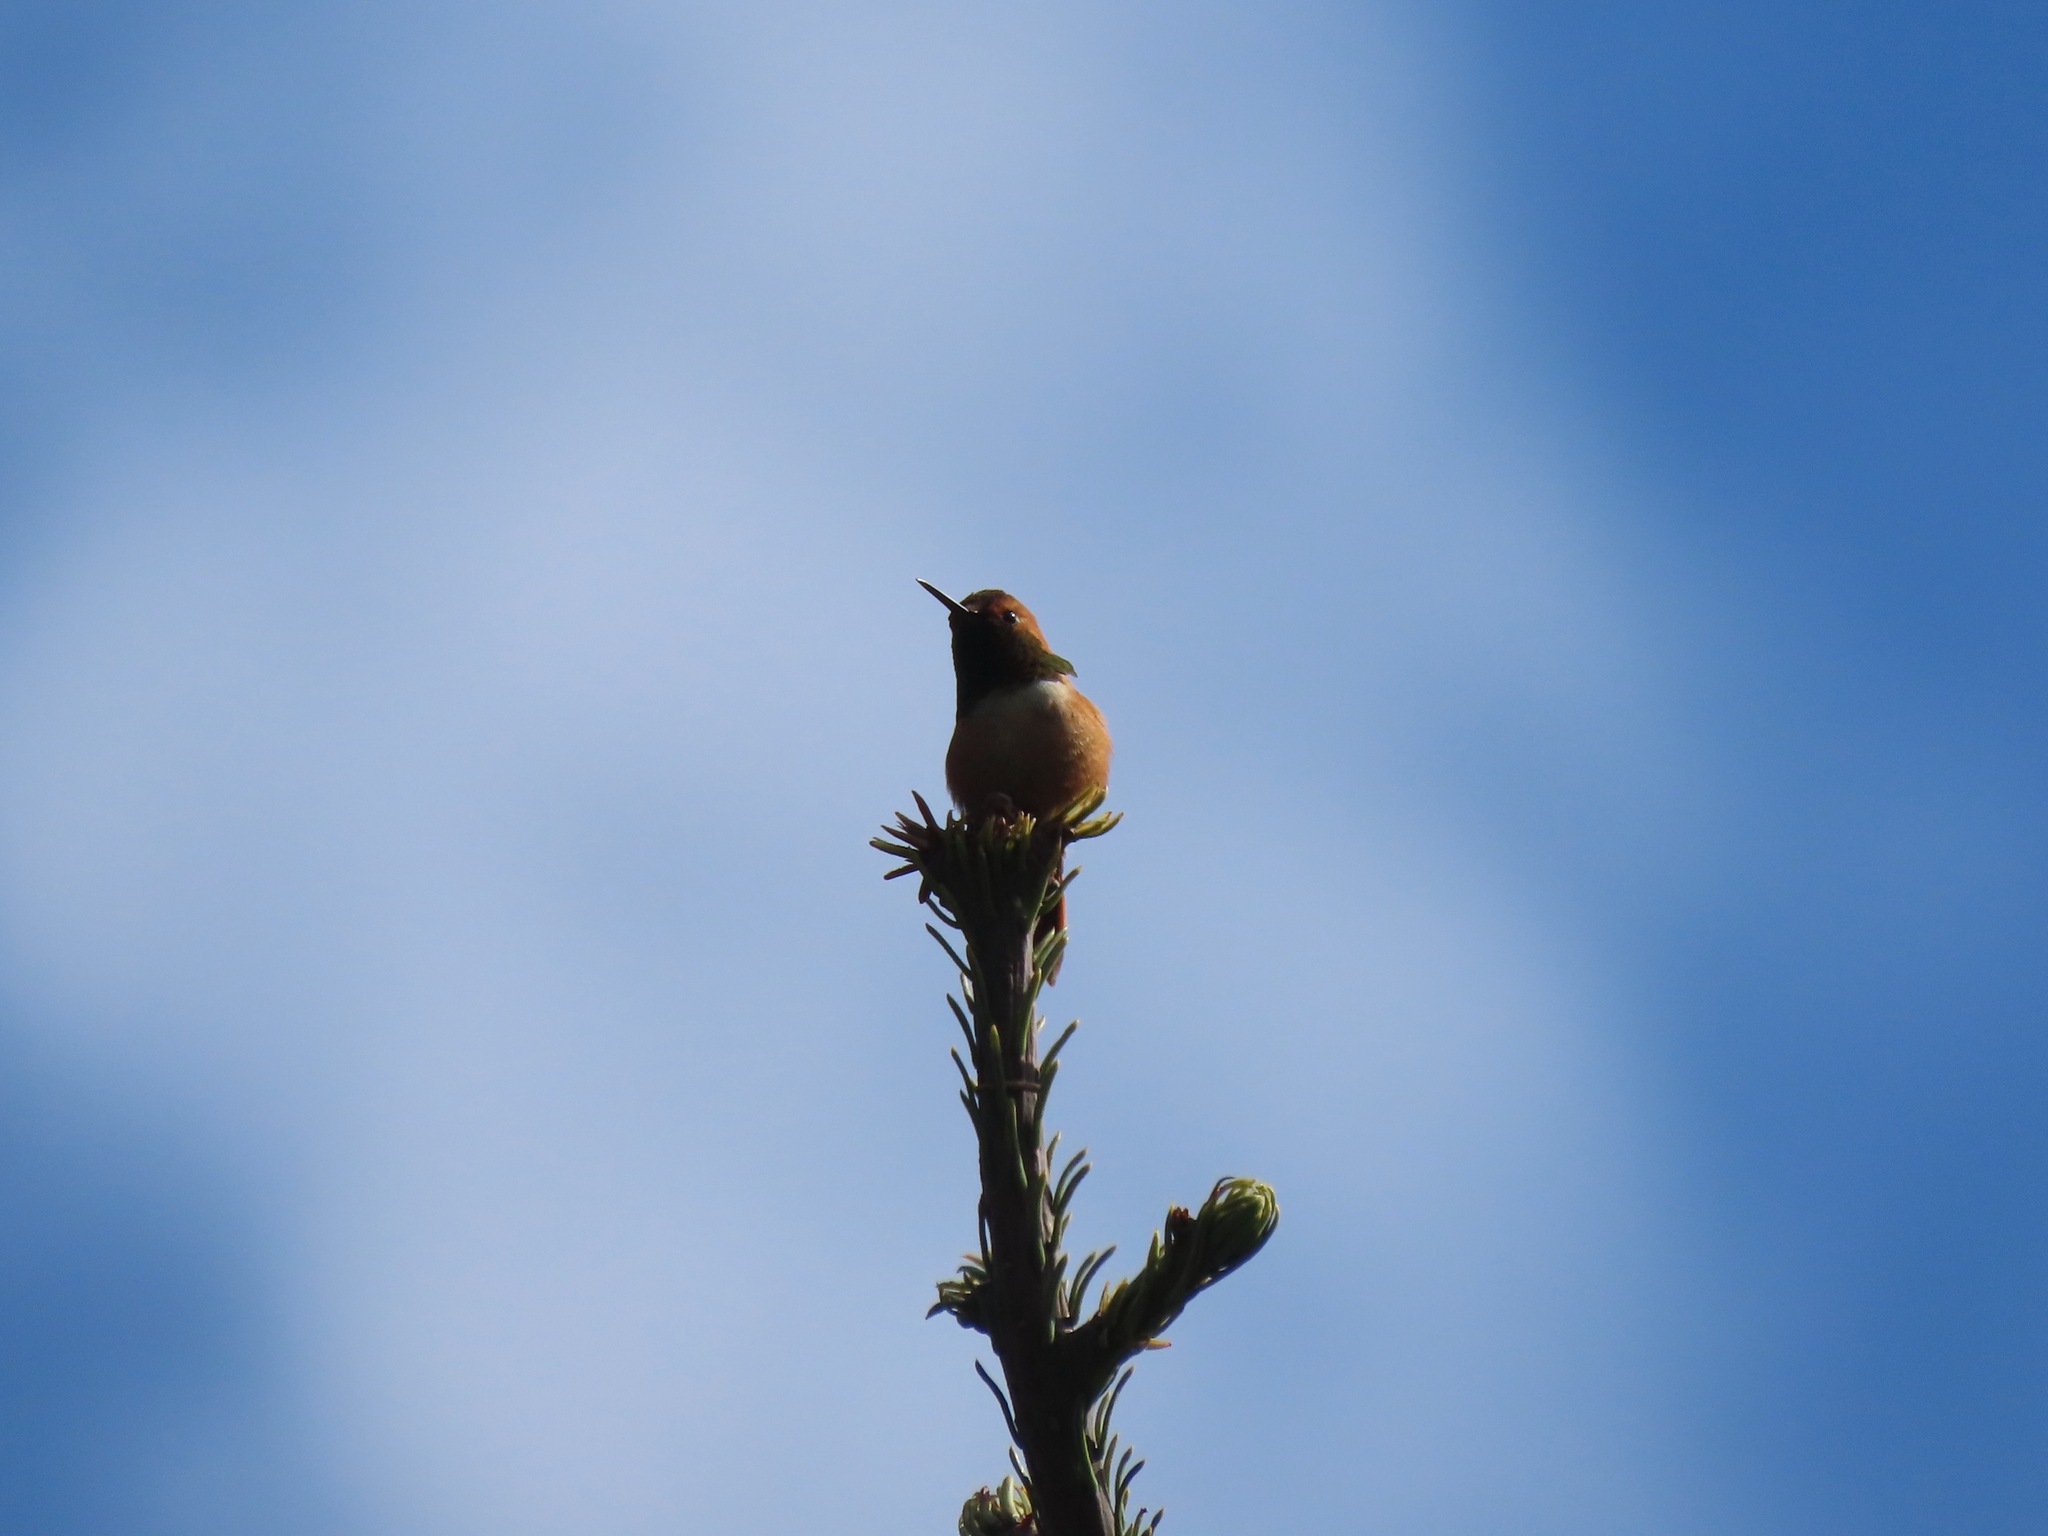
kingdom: Animalia
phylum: Chordata
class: Aves
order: Apodiformes
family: Trochilidae
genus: Selasphorus
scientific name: Selasphorus rufus
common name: Rufous hummingbird
